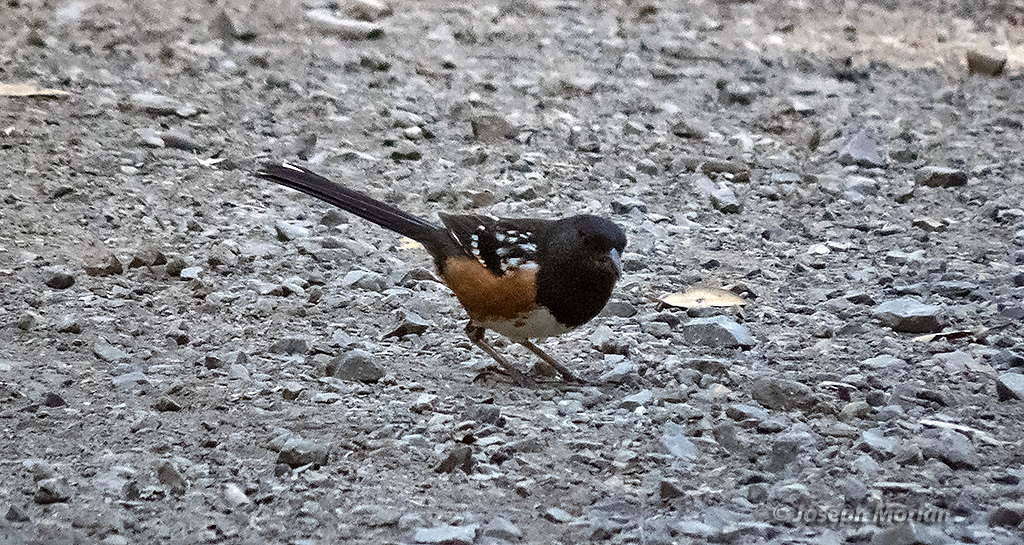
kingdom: Animalia
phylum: Chordata
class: Aves
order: Passeriformes
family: Passerellidae
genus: Pipilo
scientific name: Pipilo maculatus
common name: Spotted towhee
